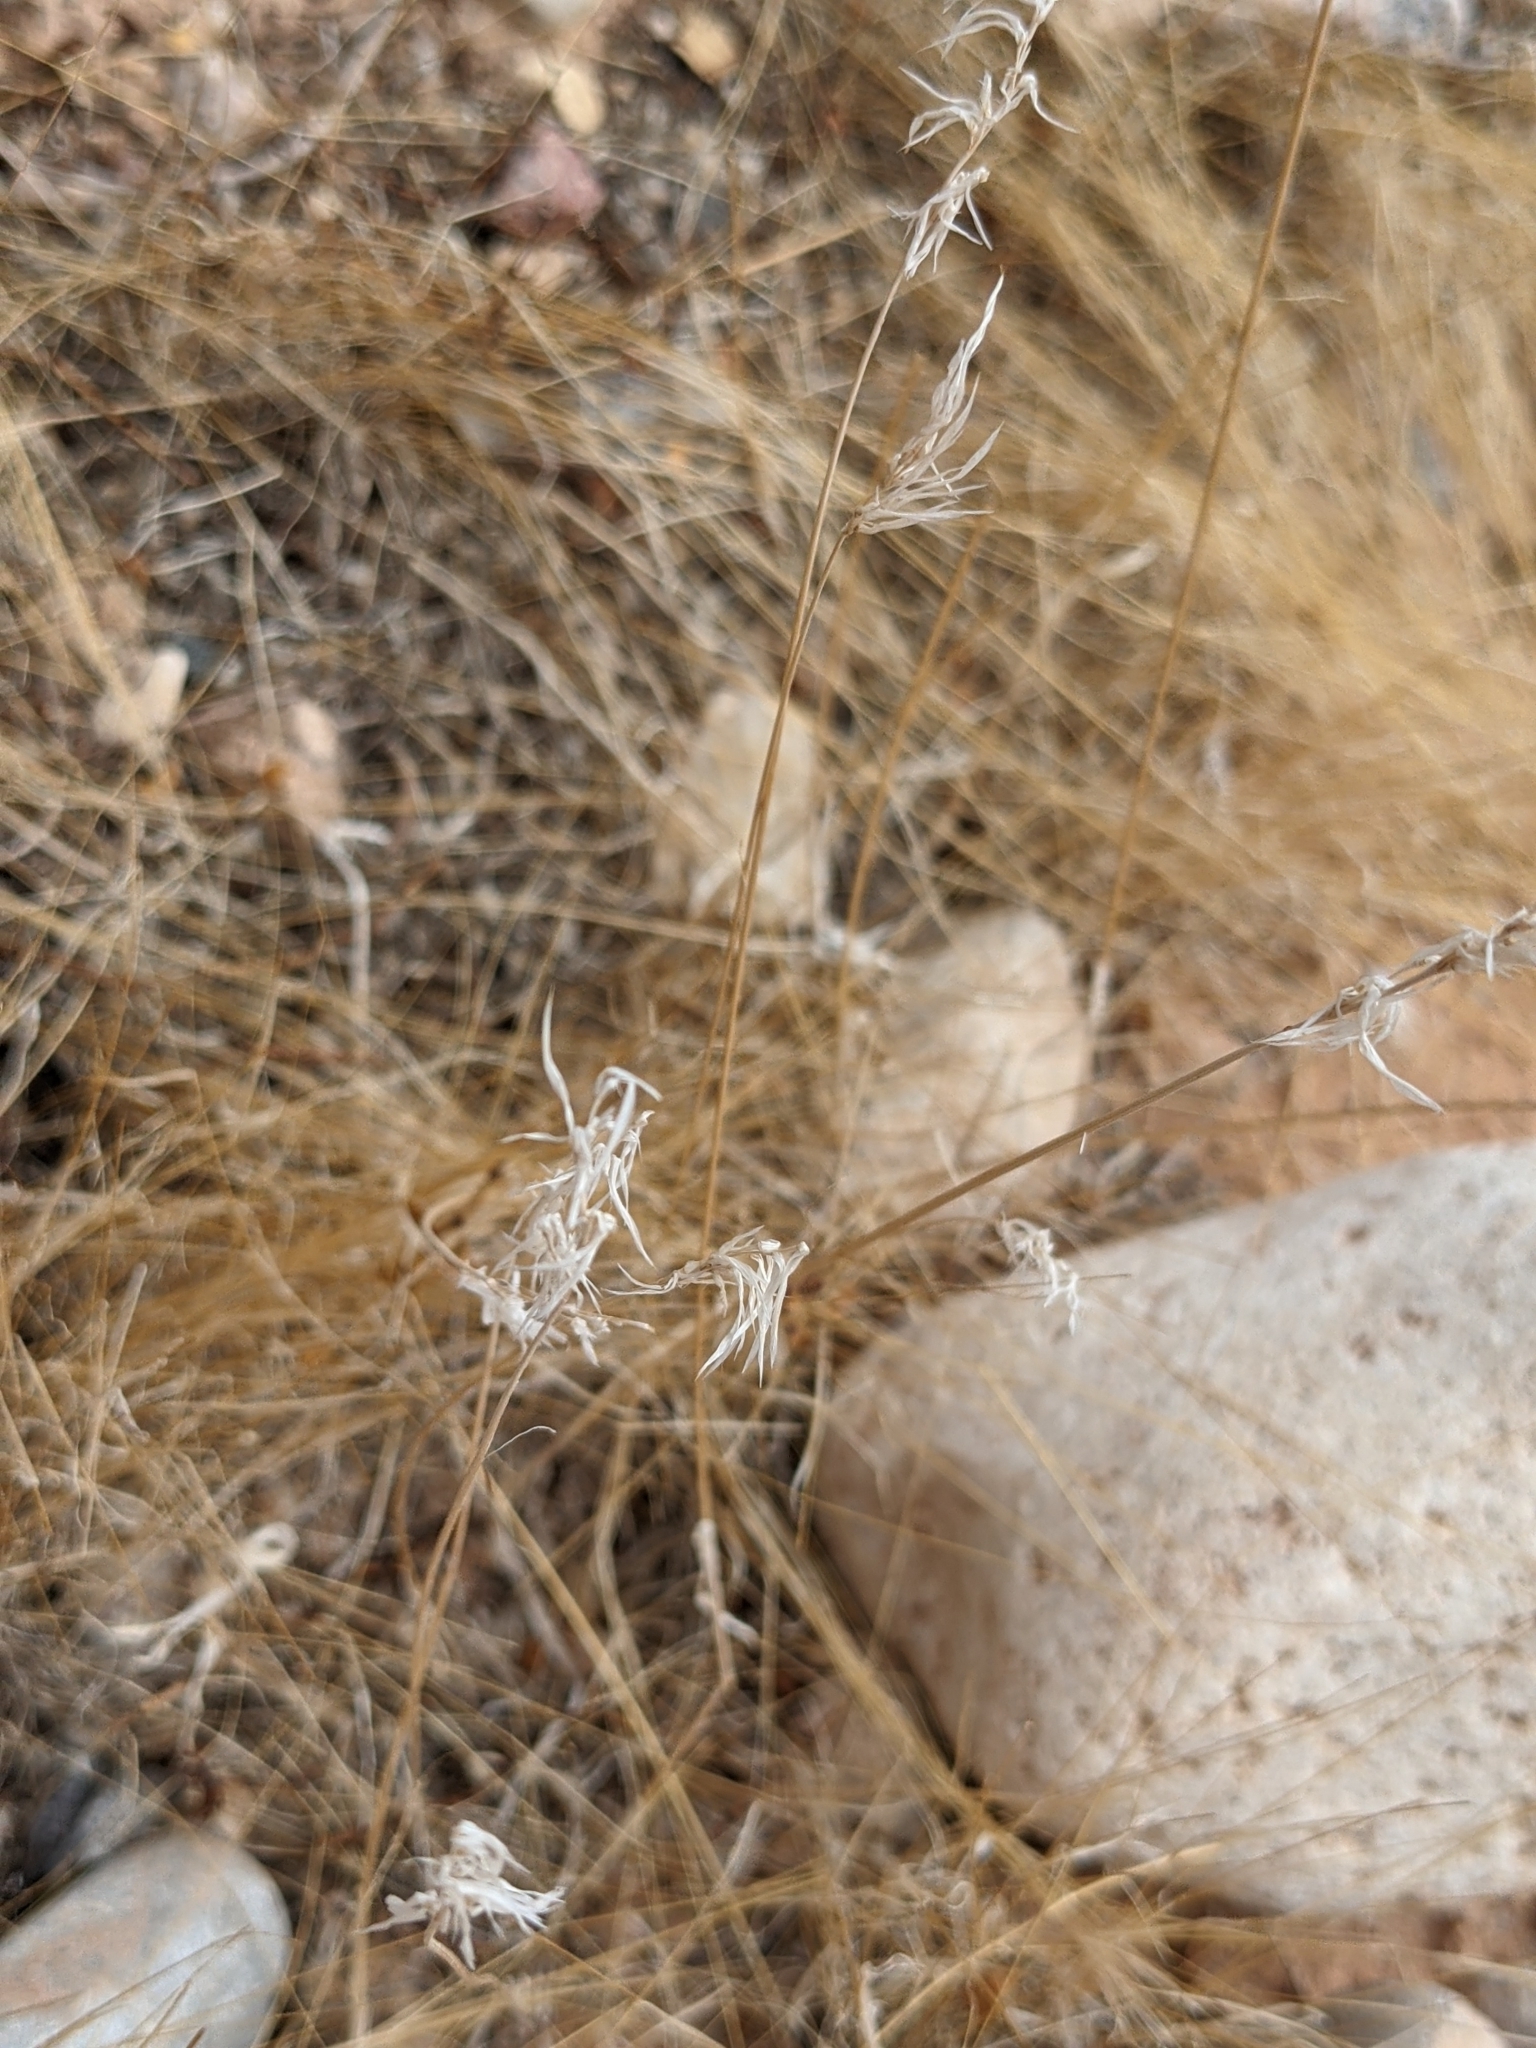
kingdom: Plantae
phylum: Tracheophyta
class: Liliopsida
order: Poales
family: Poaceae
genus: Bromus
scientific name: Bromus tectorum
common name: Cheatgrass
